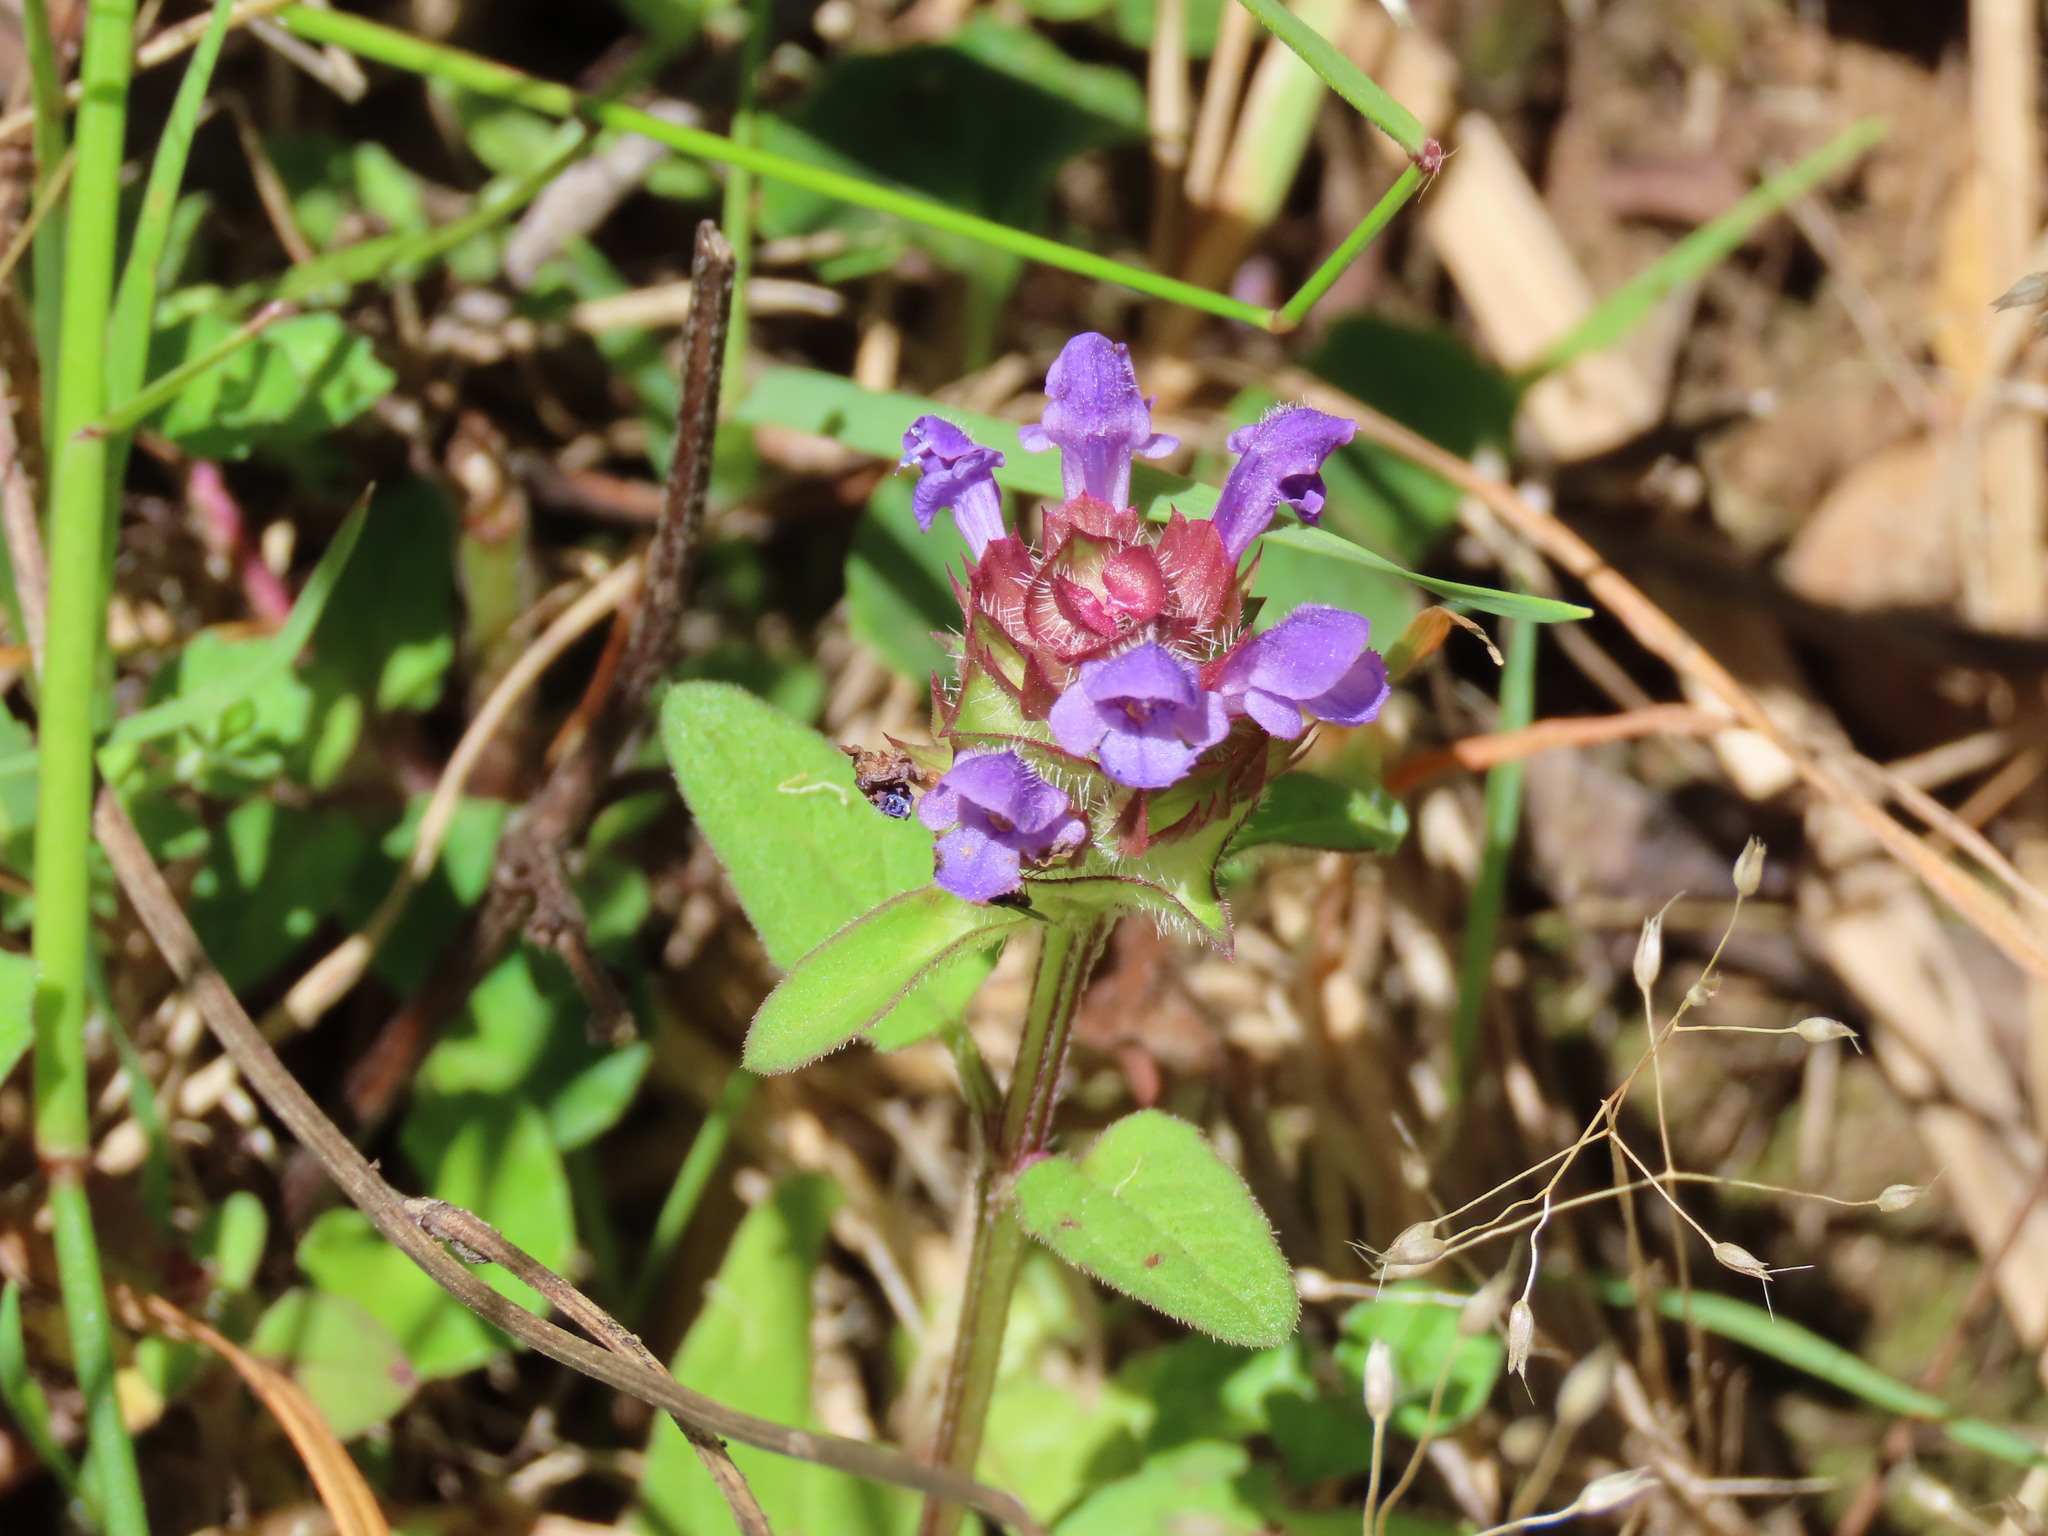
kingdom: Plantae
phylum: Tracheophyta
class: Magnoliopsida
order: Lamiales
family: Lamiaceae
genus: Prunella
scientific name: Prunella vulgaris
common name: Heal-all
